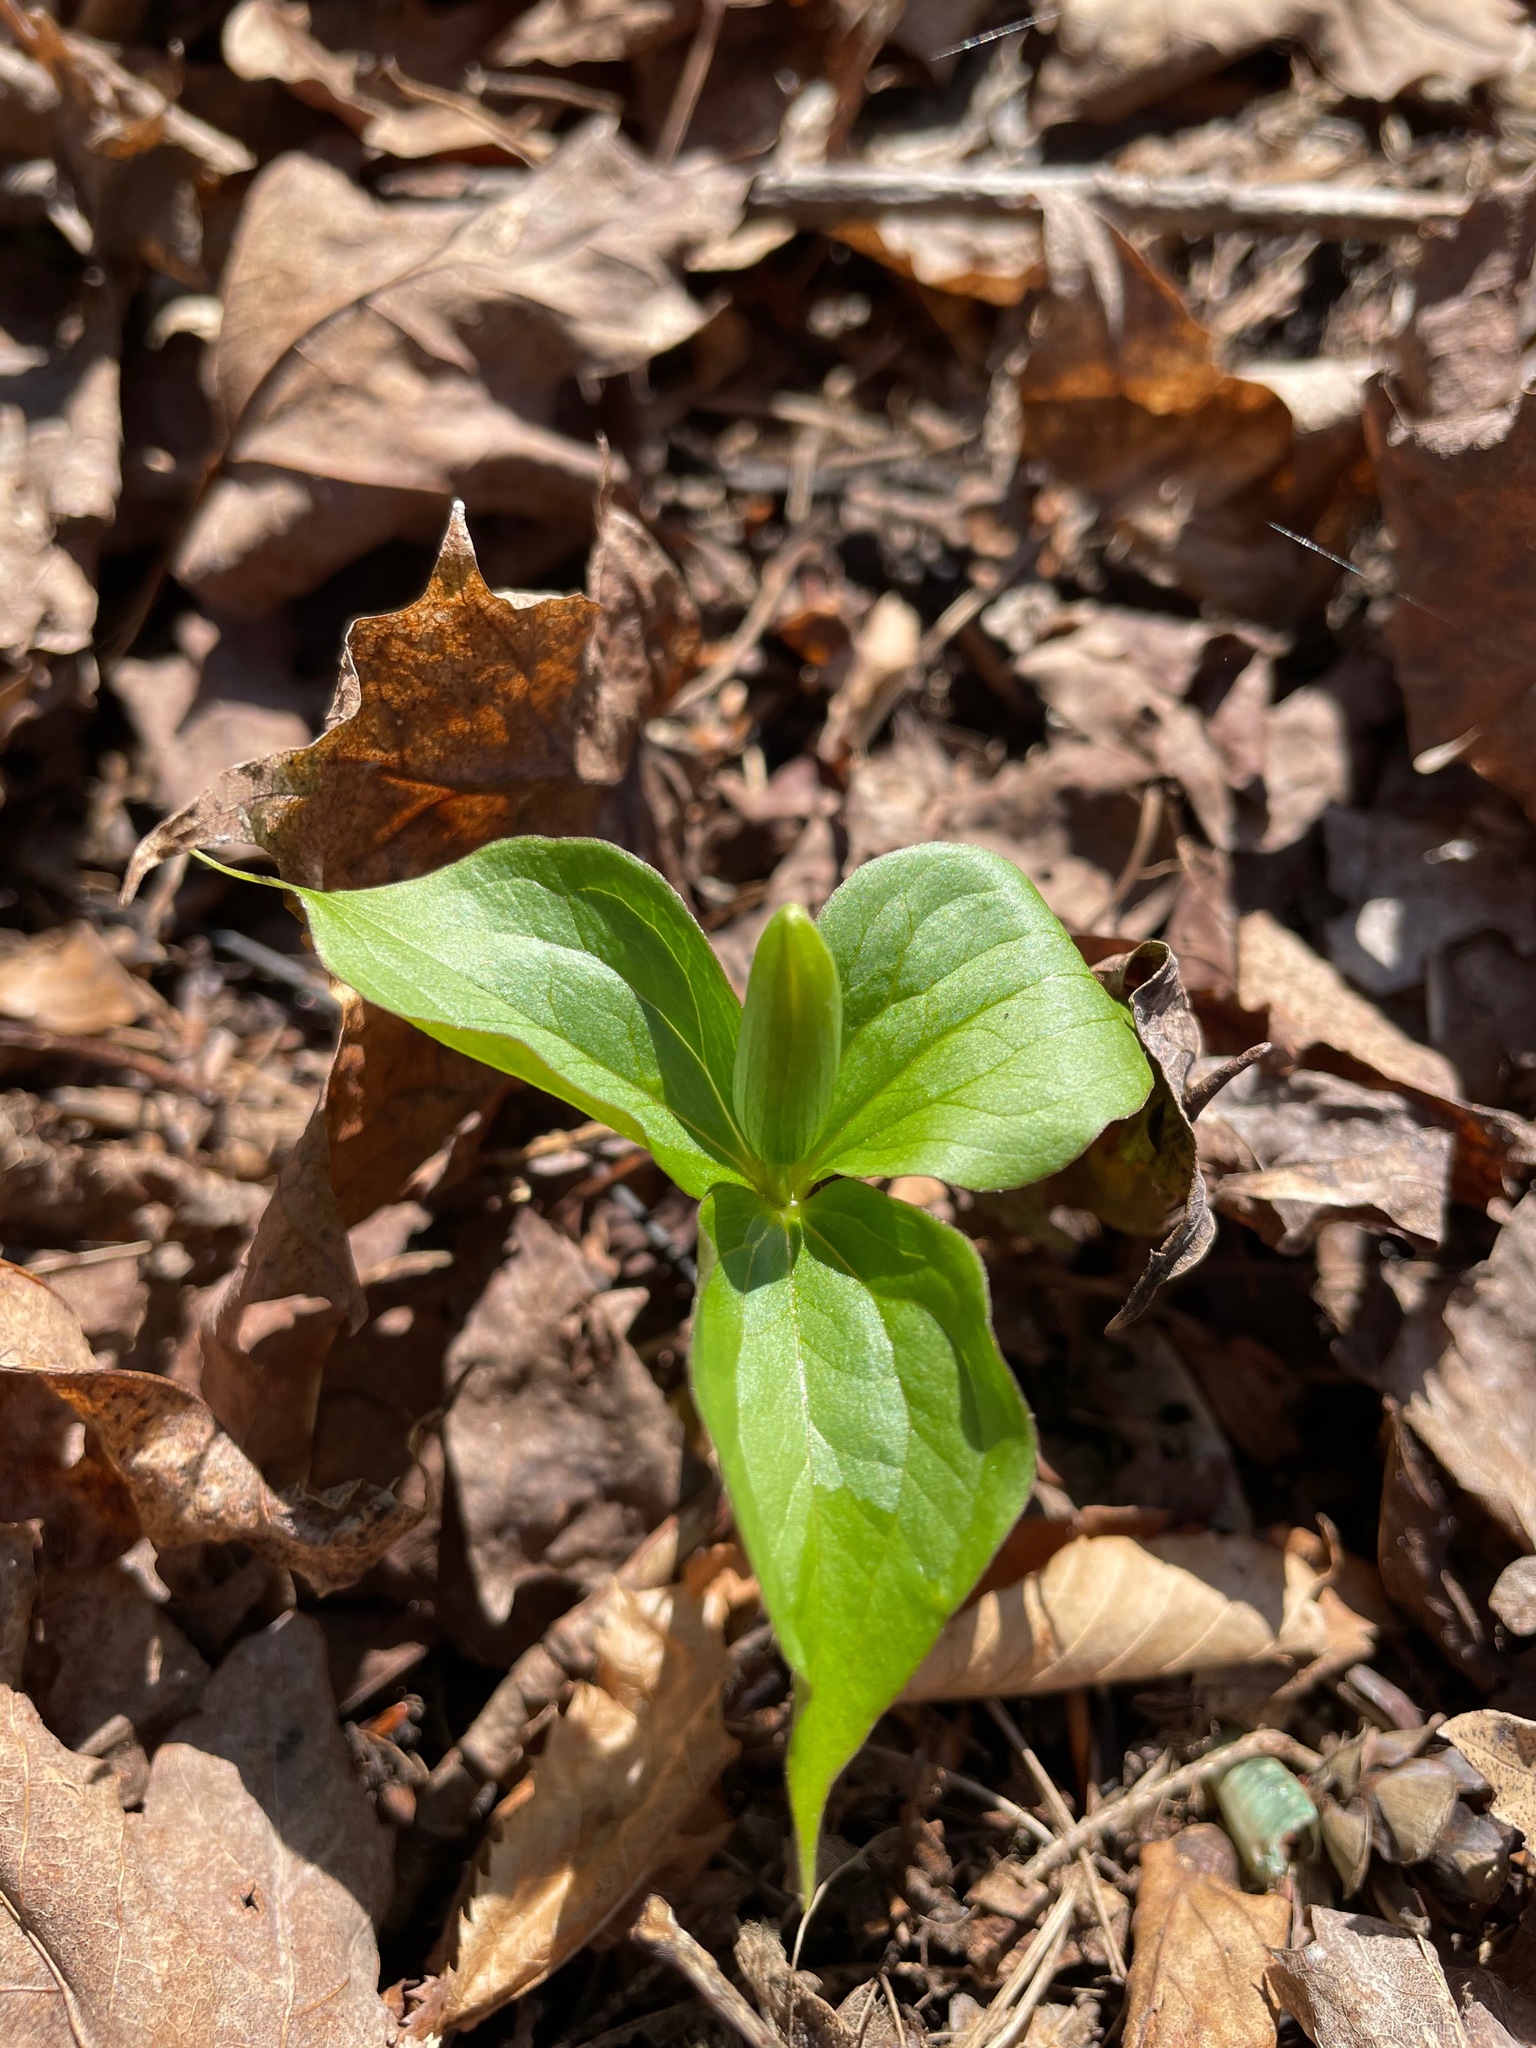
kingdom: Plantae
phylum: Tracheophyta
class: Liliopsida
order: Liliales
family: Melanthiaceae
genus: Trillium
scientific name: Trillium grandiflorum
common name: Great white trillium
